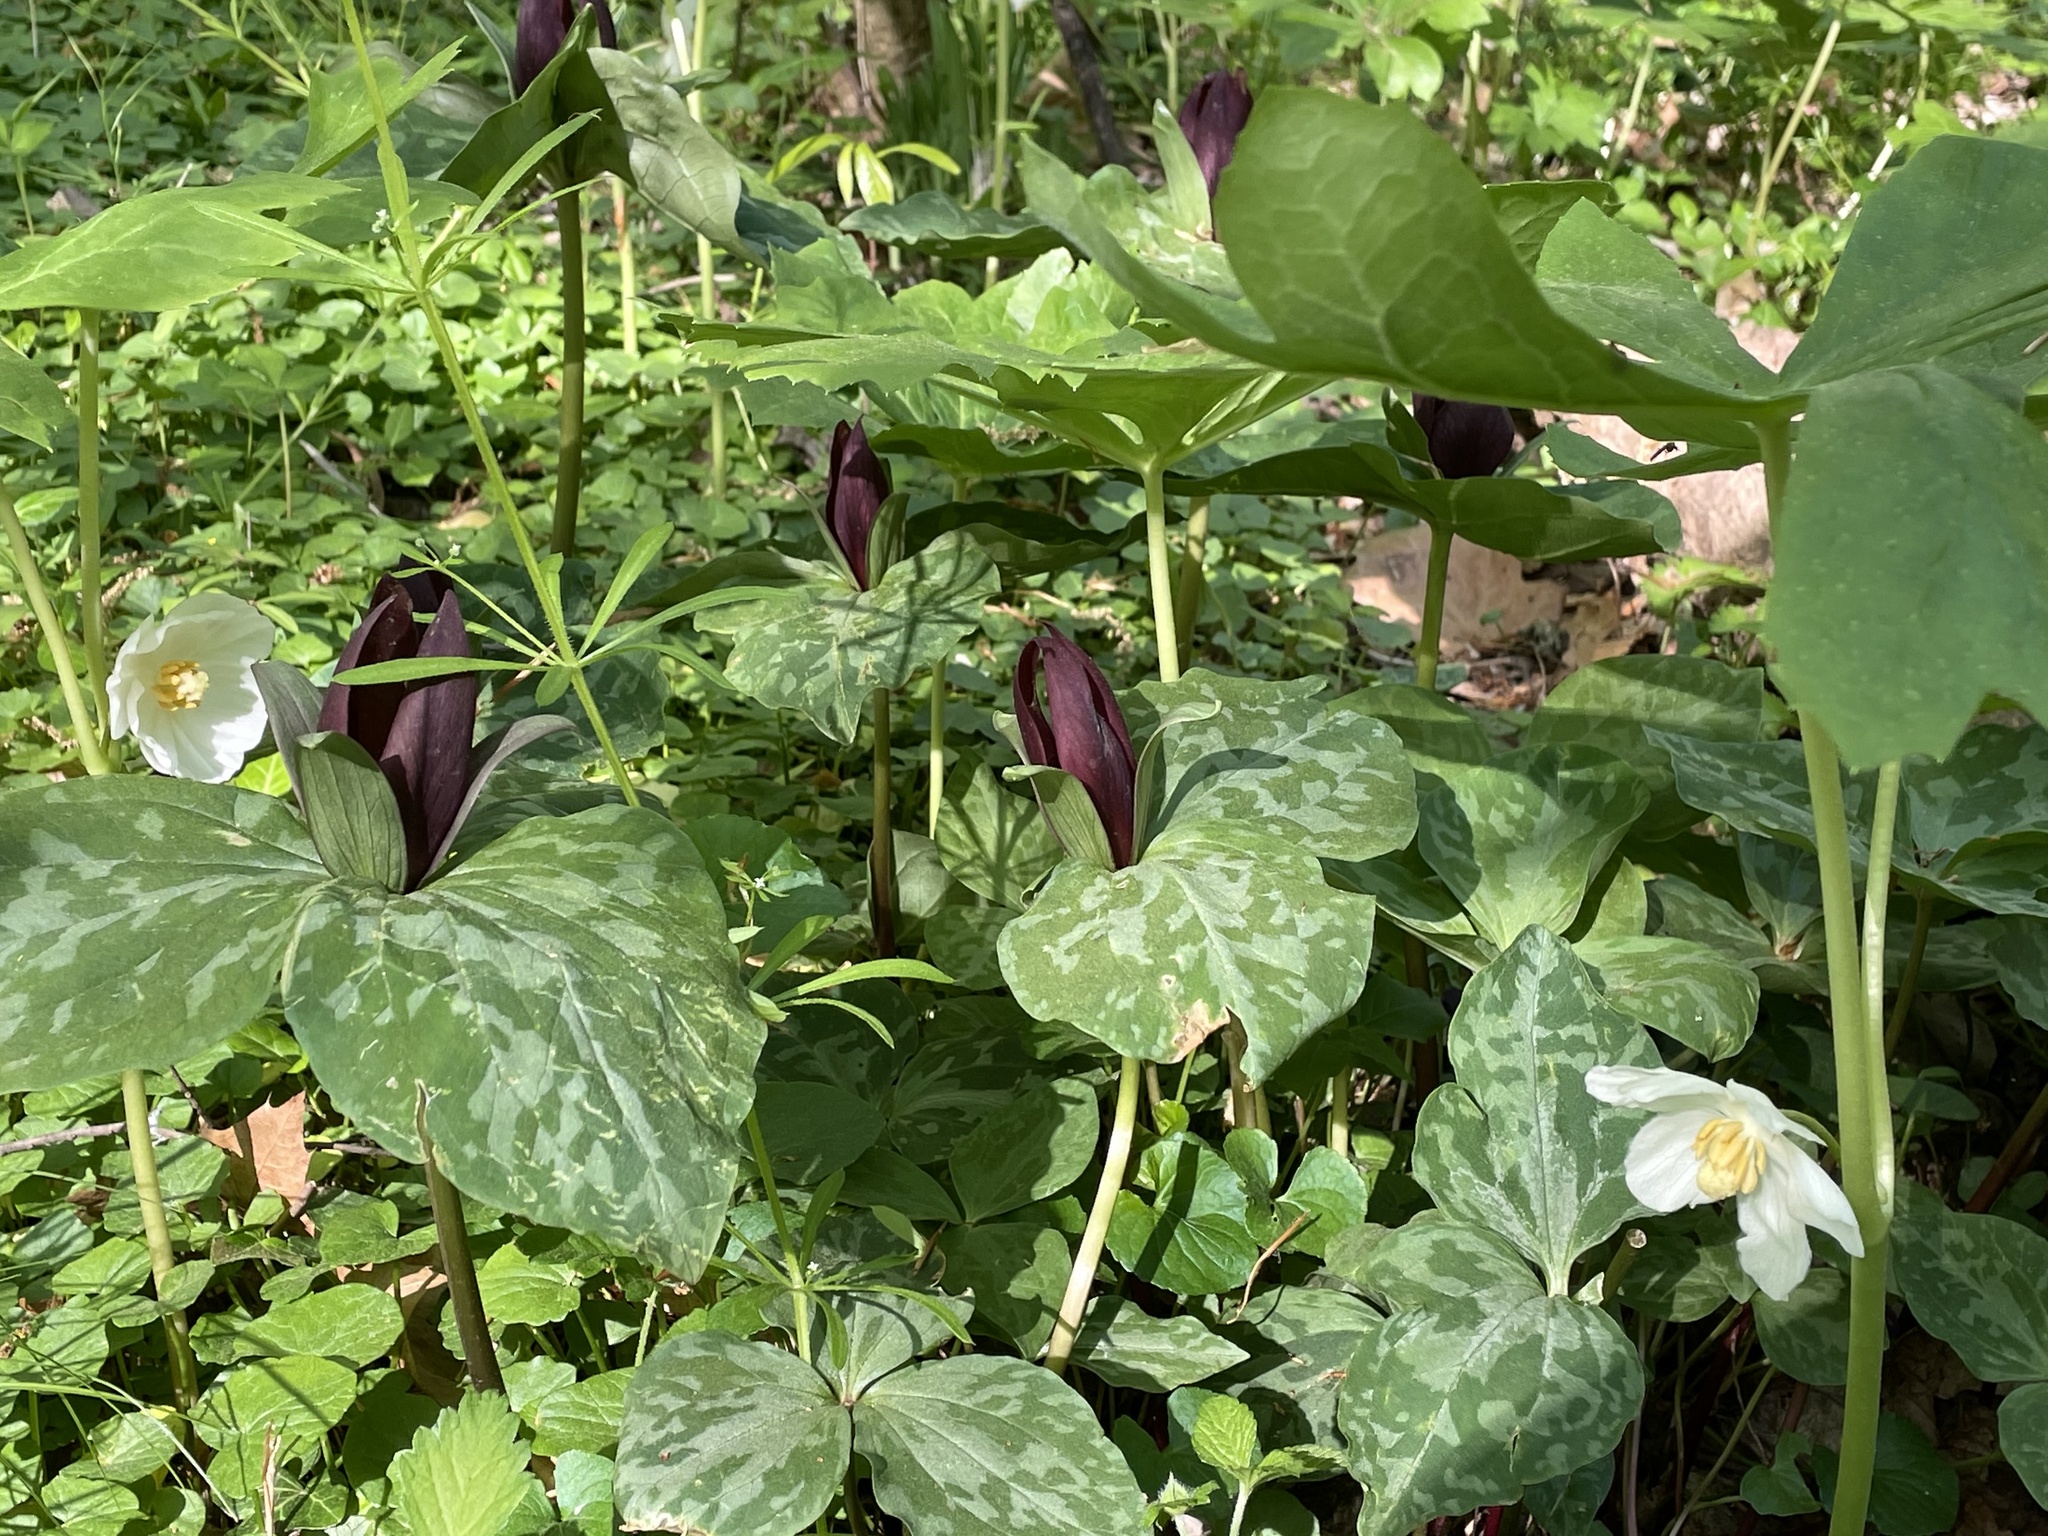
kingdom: Plantae
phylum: Tracheophyta
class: Liliopsida
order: Liliales
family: Melanthiaceae
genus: Trillium
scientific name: Trillium cuneatum
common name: Cuneate trillium
